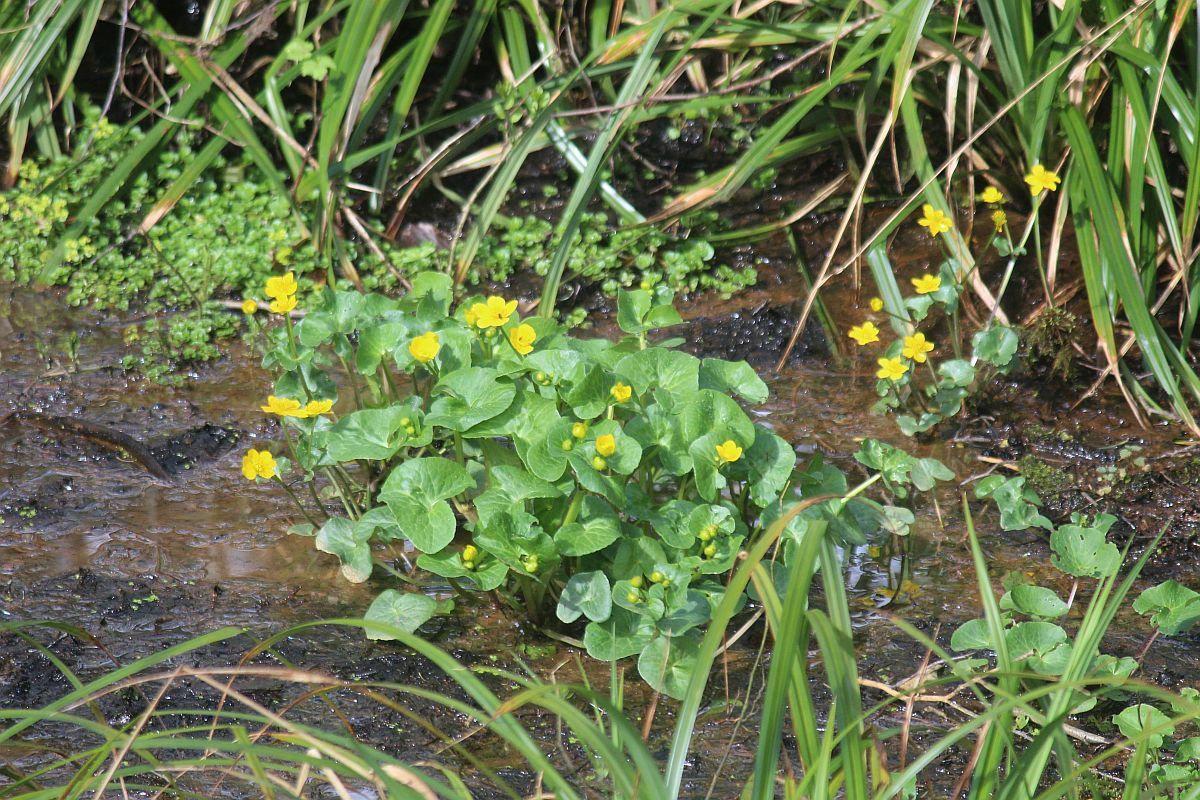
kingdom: Plantae
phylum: Tracheophyta
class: Magnoliopsida
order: Ranunculales
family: Ranunculaceae
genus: Caltha
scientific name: Caltha palustris
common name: Marsh marigold
